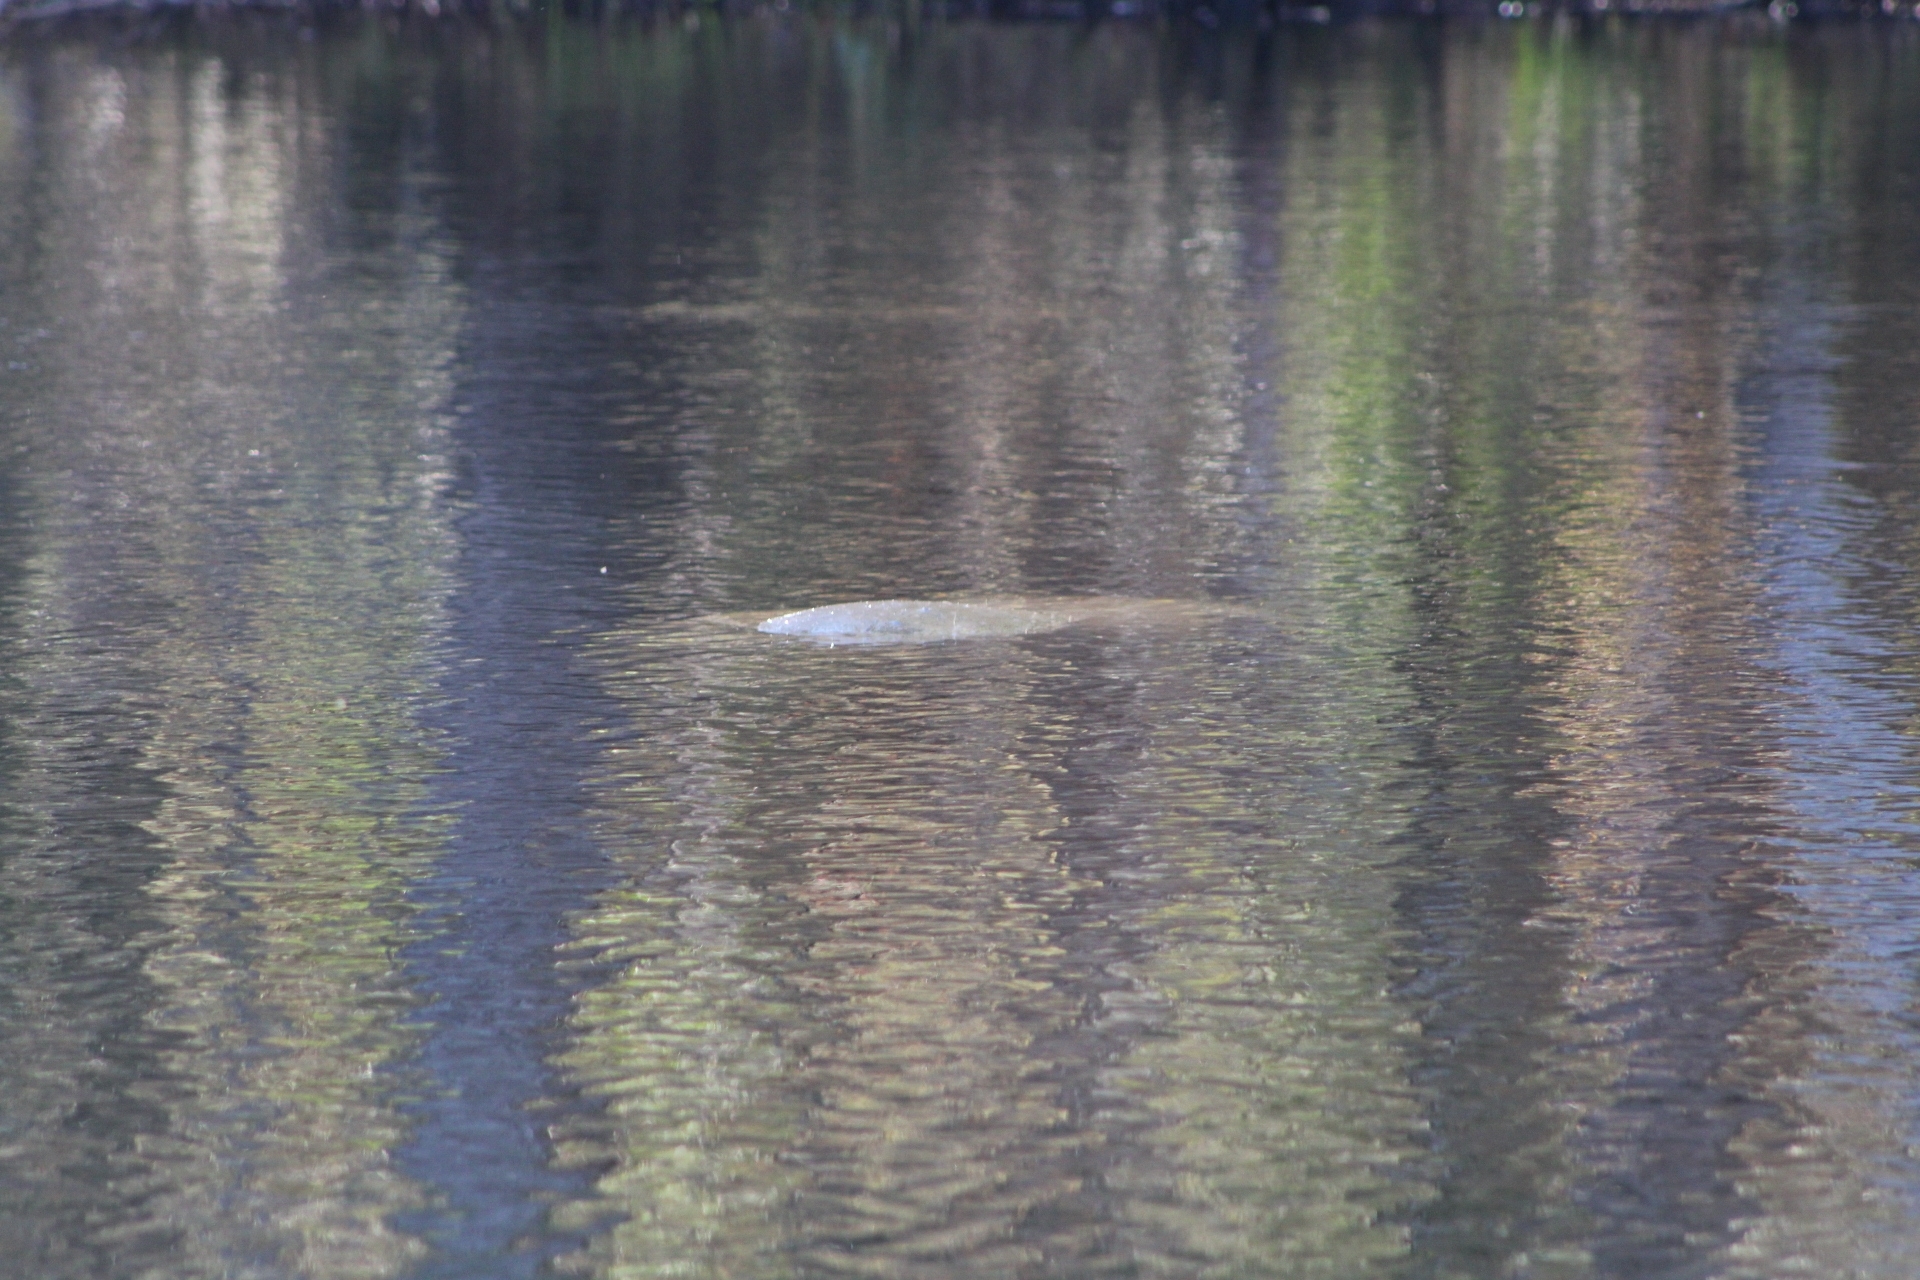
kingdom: Animalia
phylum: Chordata
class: Mammalia
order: Sirenia
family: Trichechidae
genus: Trichechus
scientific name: Trichechus manatus
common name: West indian manatee
